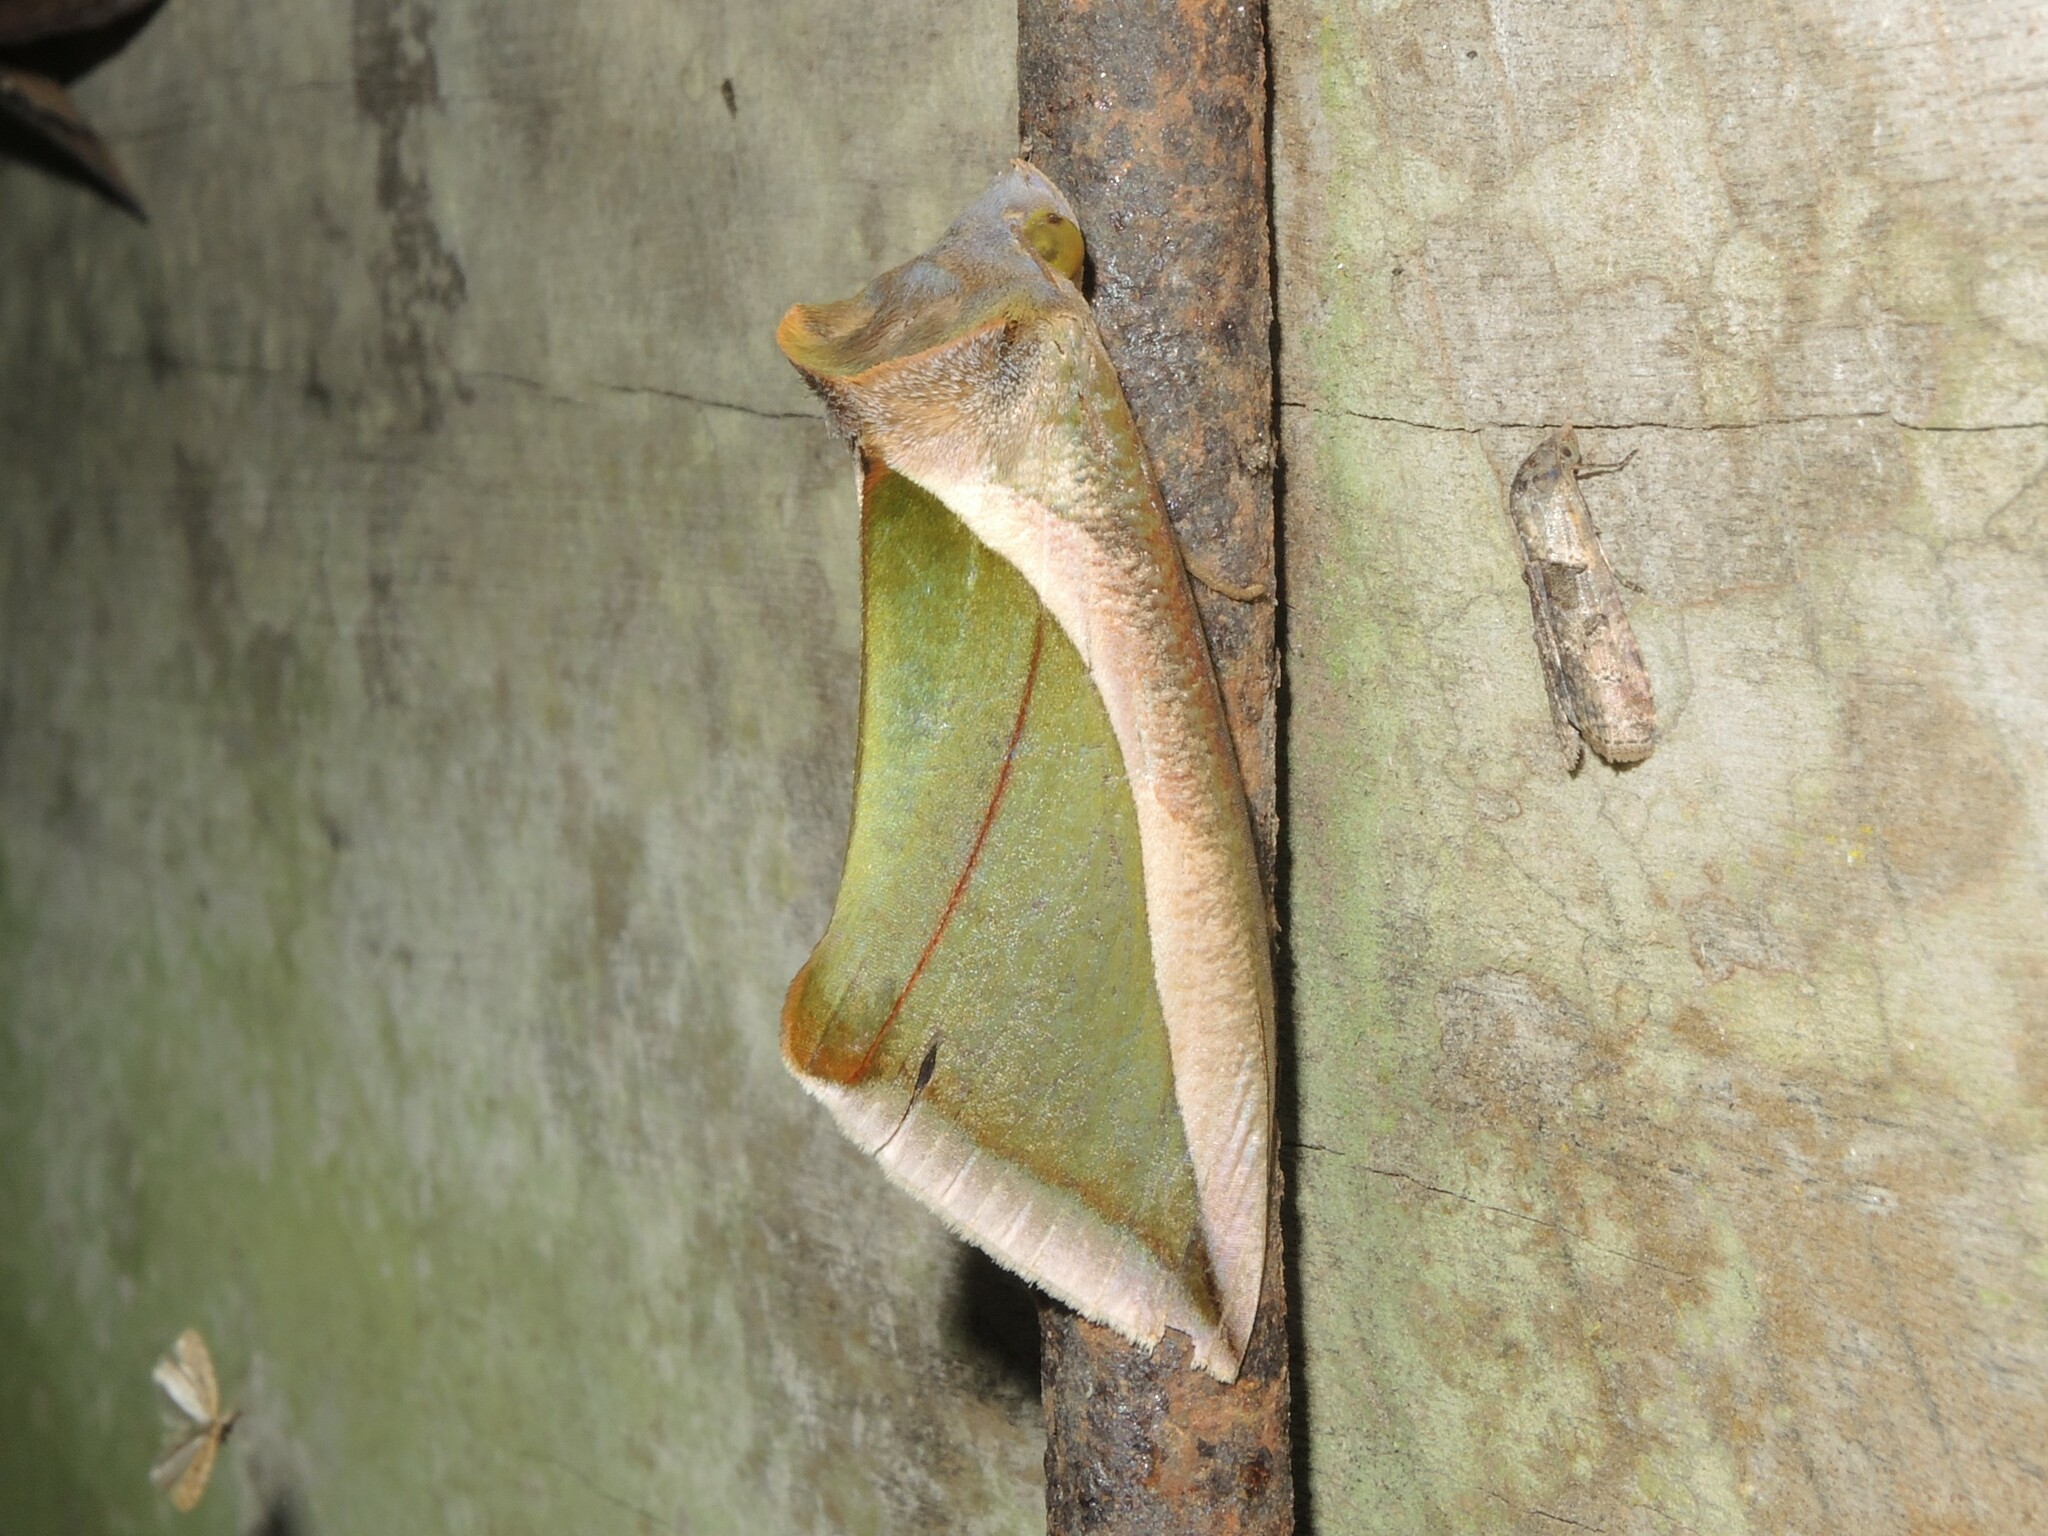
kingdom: Animalia
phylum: Arthropoda
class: Insecta
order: Lepidoptera
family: Erebidae
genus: Eudocima
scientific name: Eudocima salaminia
